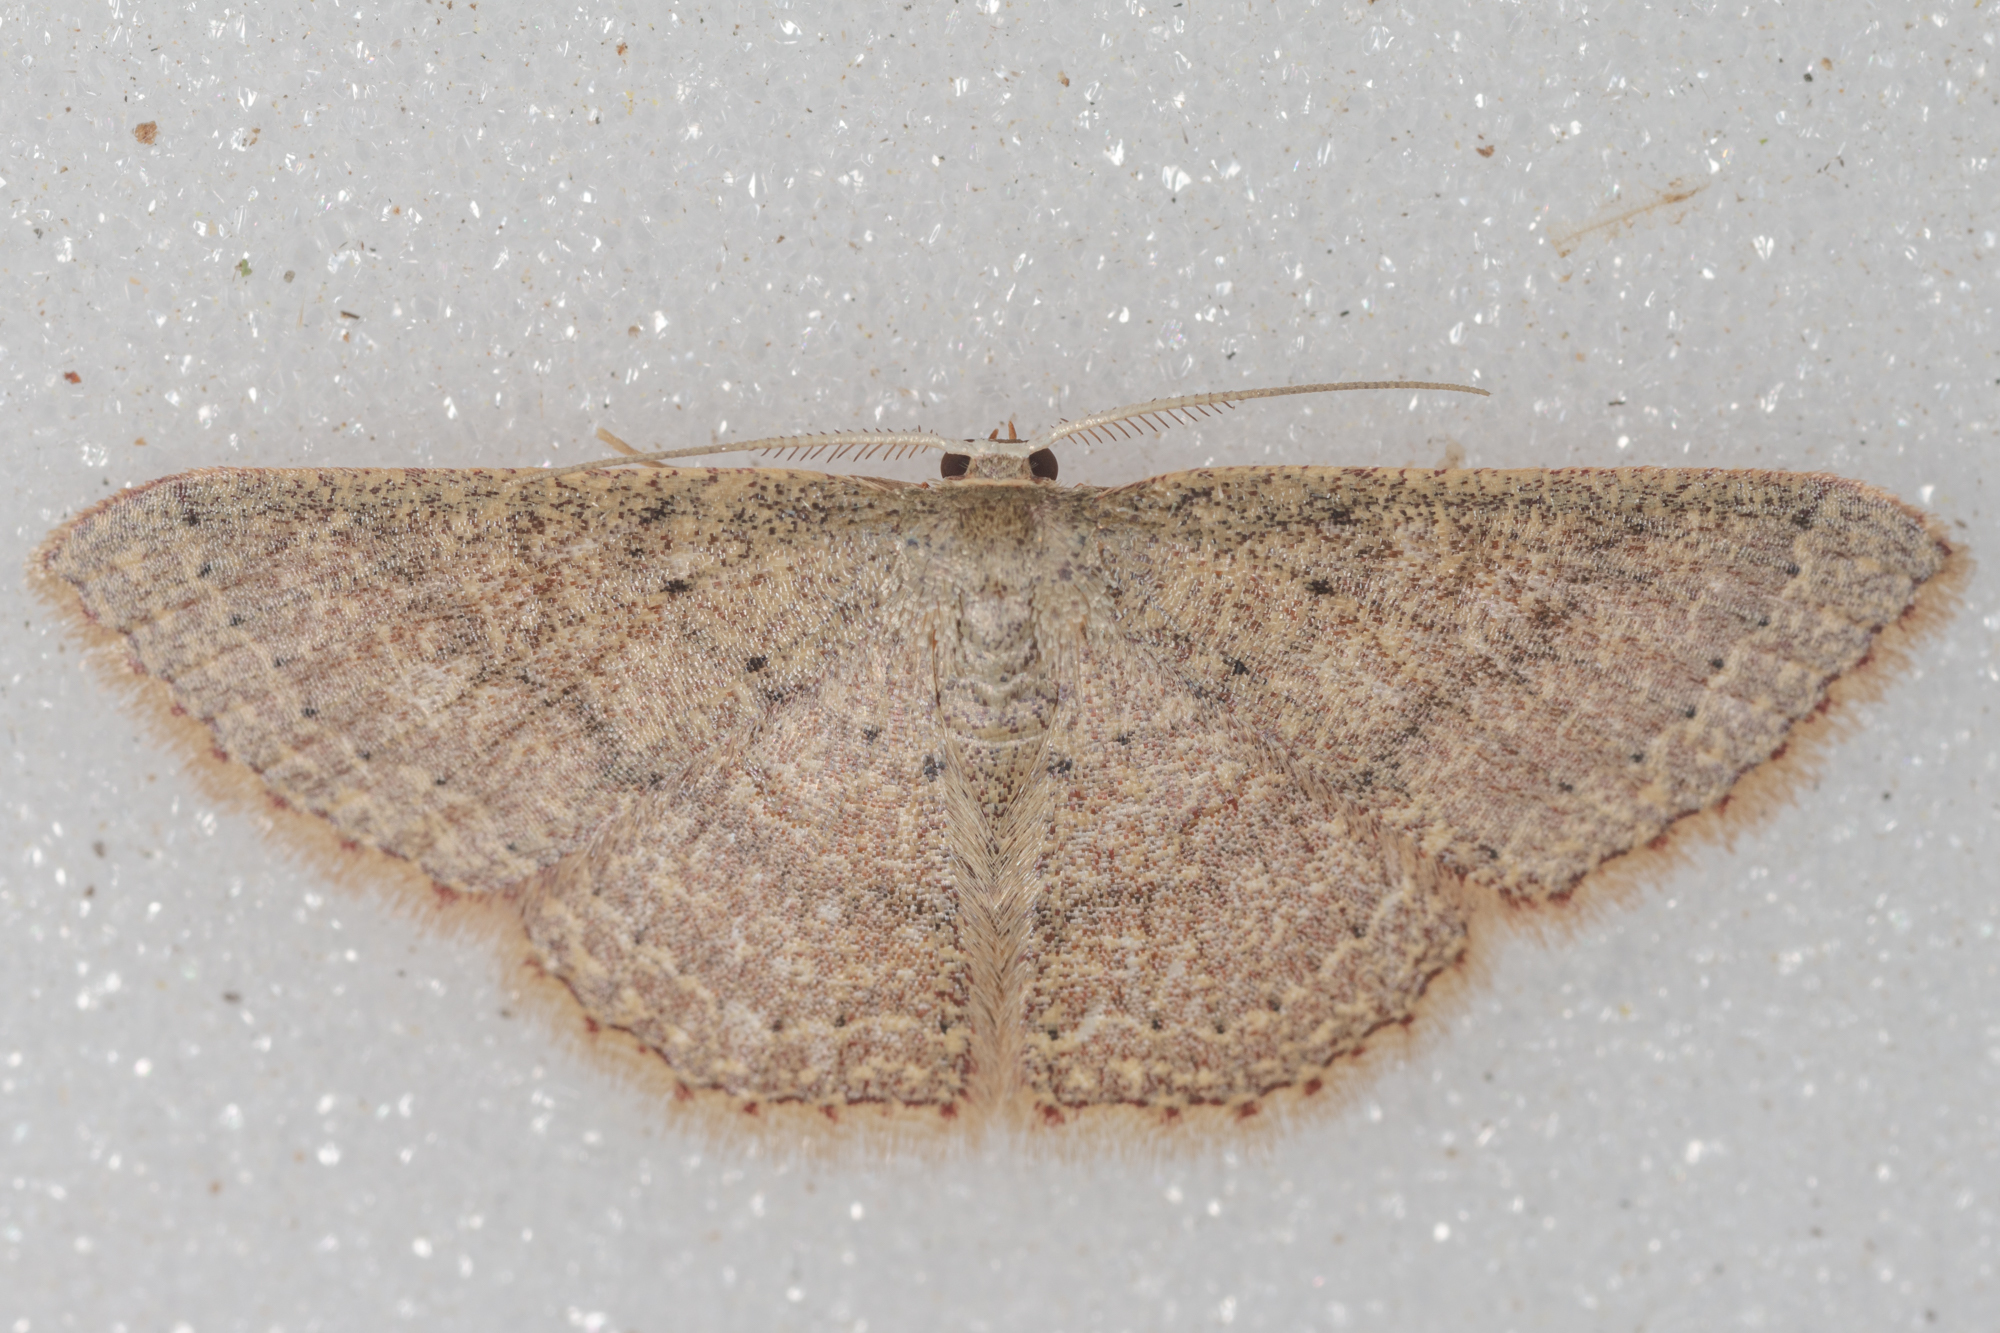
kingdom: Animalia
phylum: Arthropoda
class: Insecta
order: Lepidoptera
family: Geometridae
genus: Pleuroprucha
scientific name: Pleuroprucha insulsaria
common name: Common tan wave
